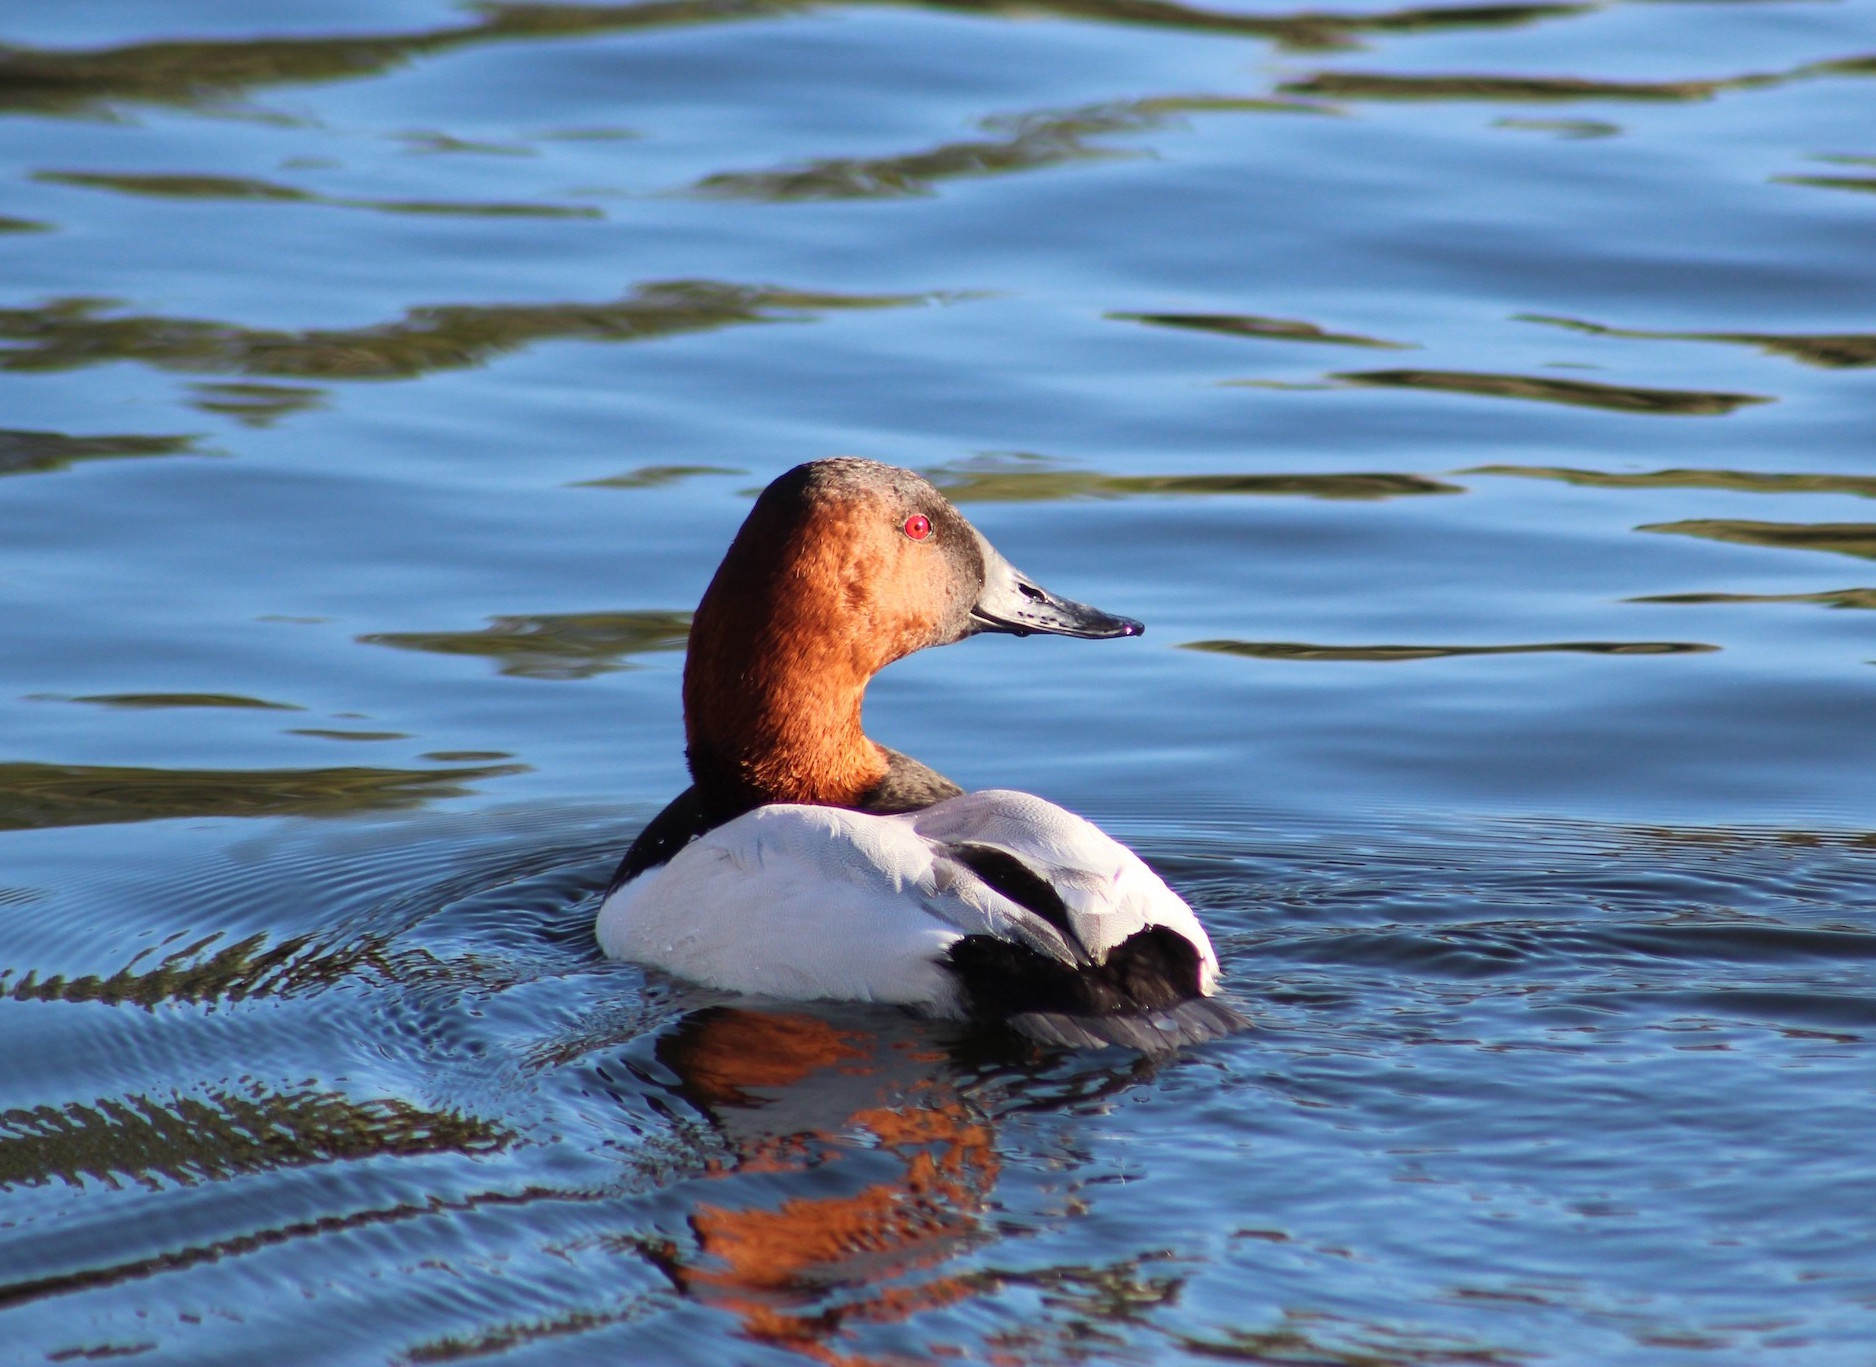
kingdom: Animalia
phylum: Chordata
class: Aves
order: Anseriformes
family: Anatidae
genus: Aythya
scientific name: Aythya valisineria
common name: Canvasback
